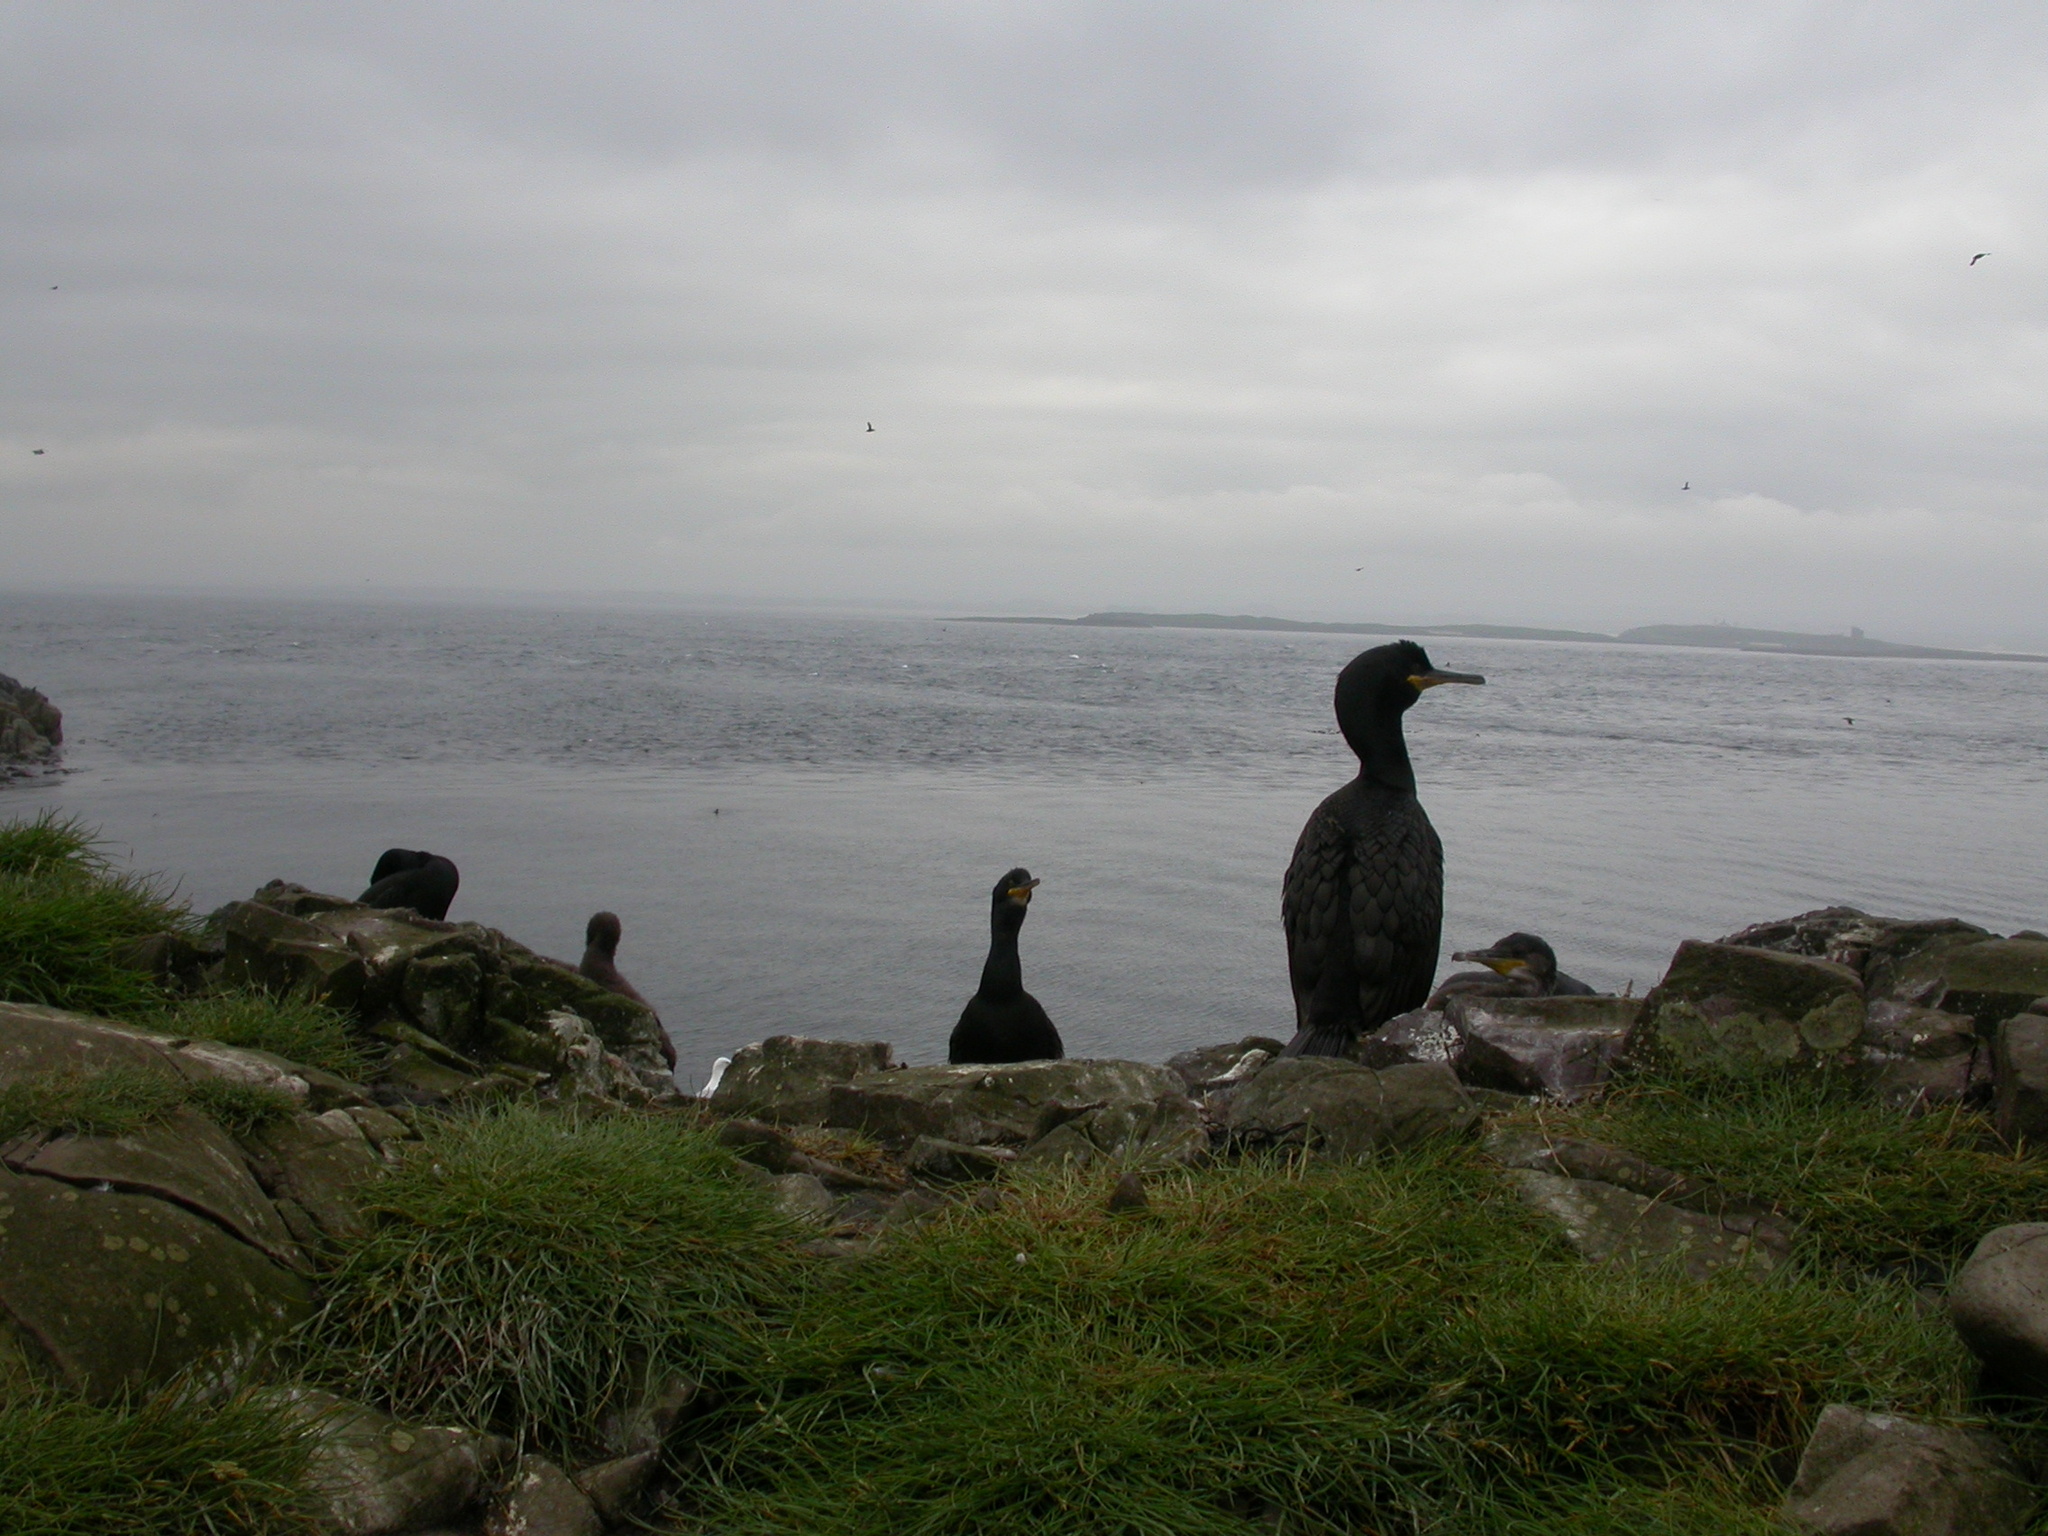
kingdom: Animalia
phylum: Chordata
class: Aves
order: Suliformes
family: Phalacrocoracidae
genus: Phalacrocorax
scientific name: Phalacrocorax aristotelis
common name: European shag
